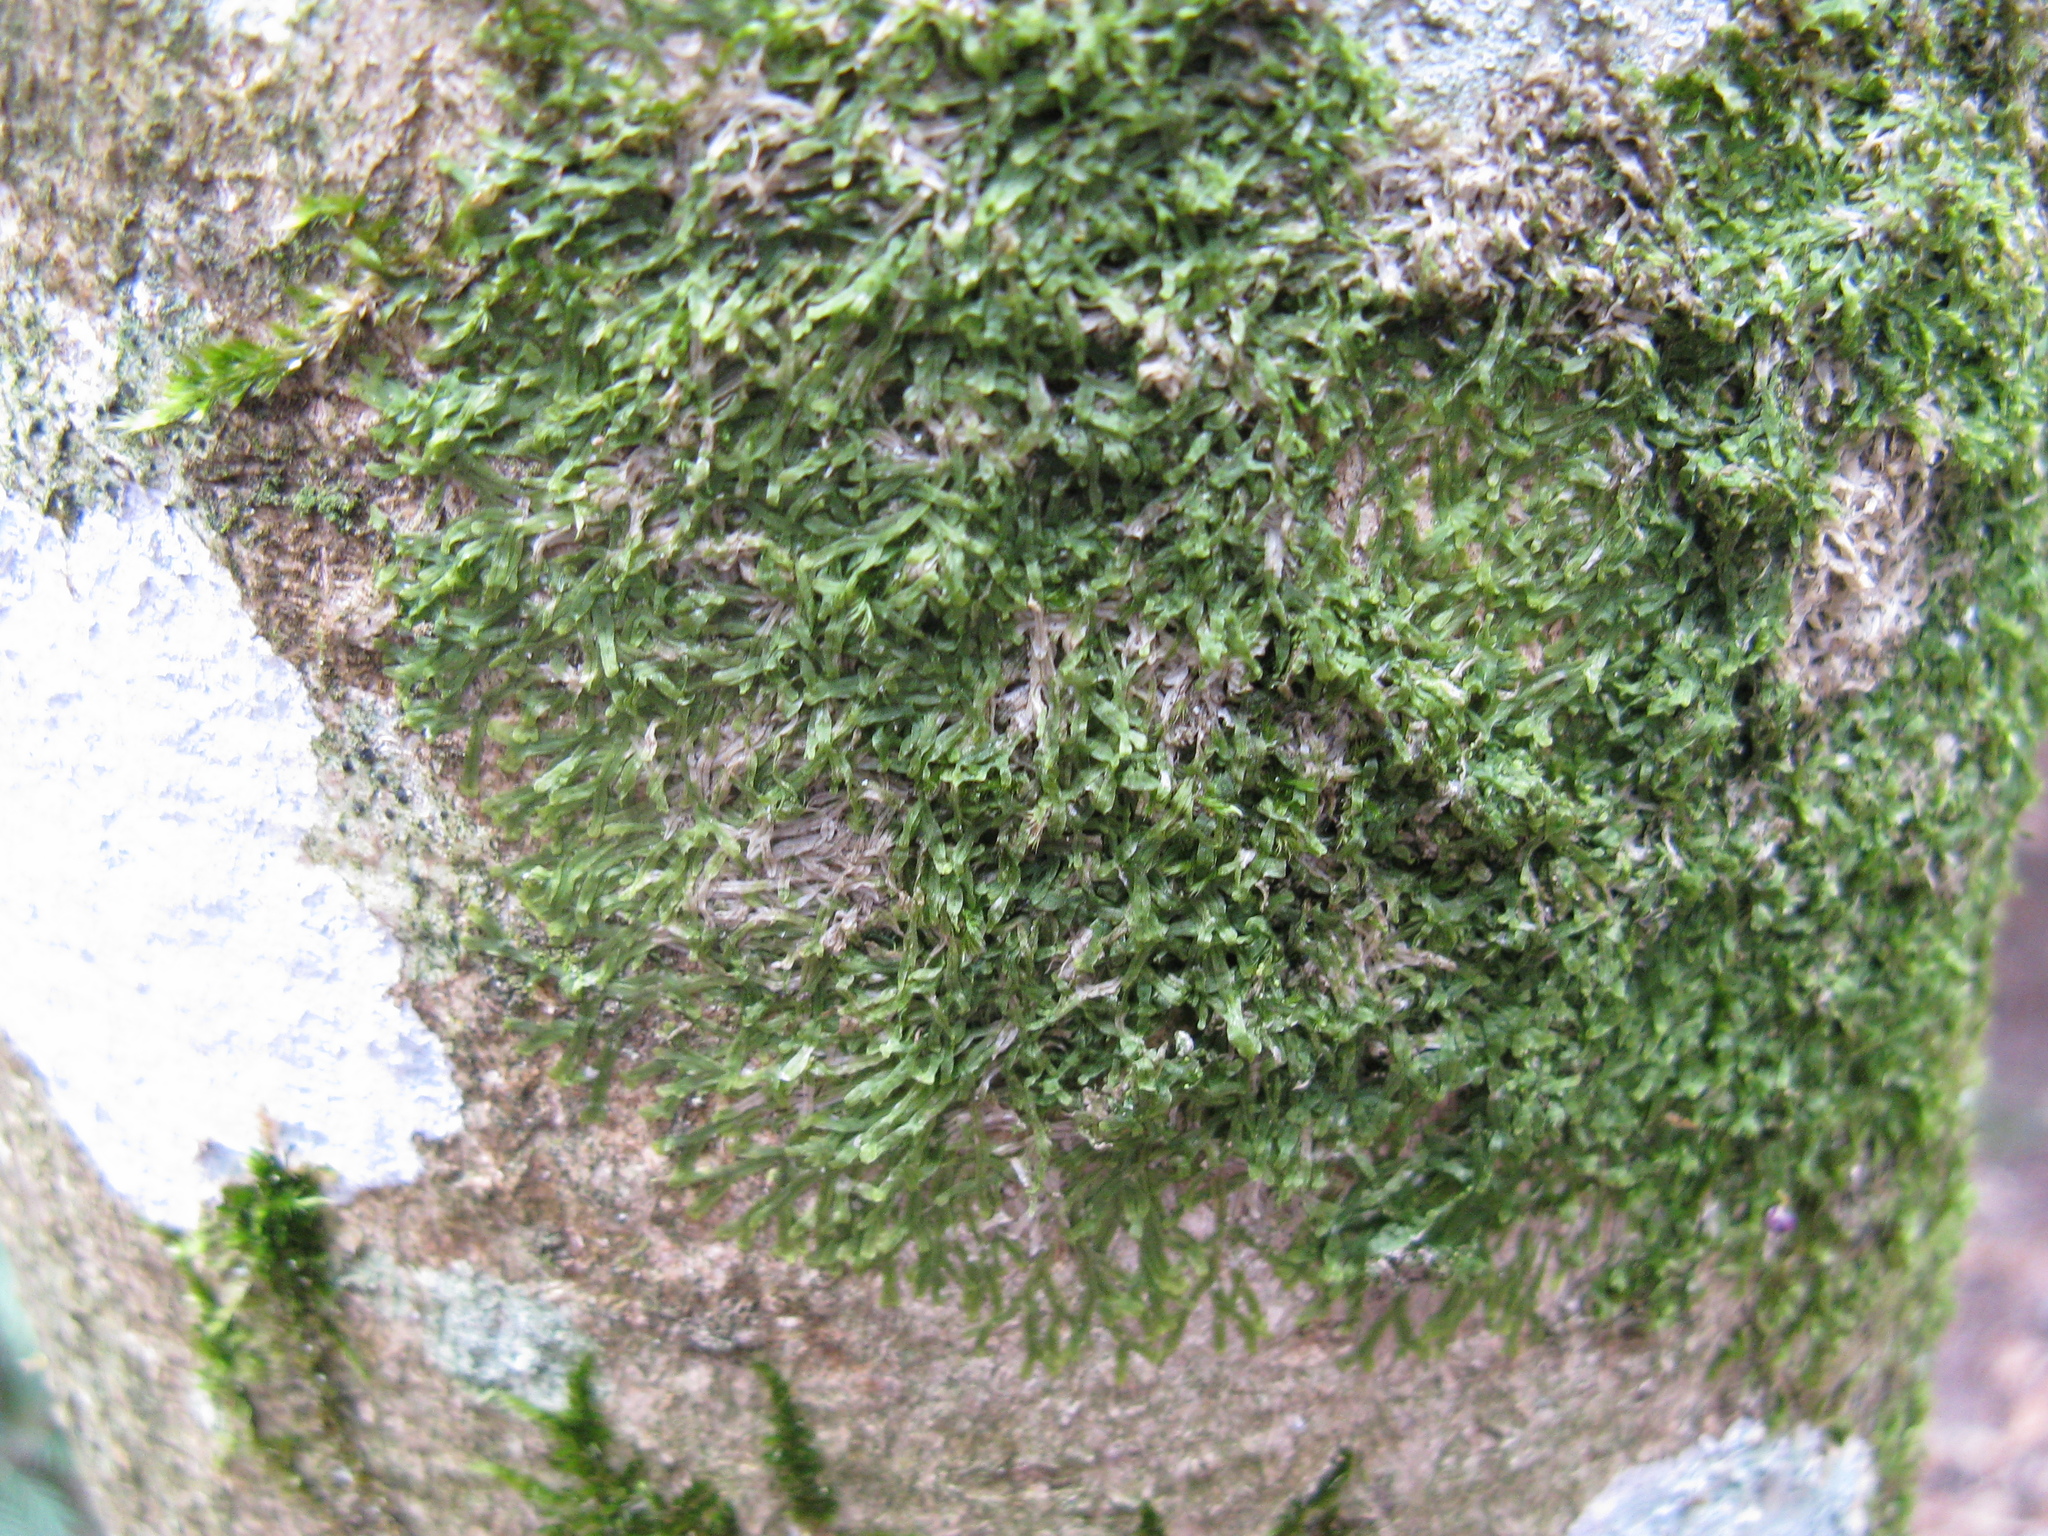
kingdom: Plantae
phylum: Marchantiophyta
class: Jungermanniopsida
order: Metzgeriales
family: Metzgeriaceae
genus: Metzgeria
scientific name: Metzgeria furcata
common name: Forked veilwort
